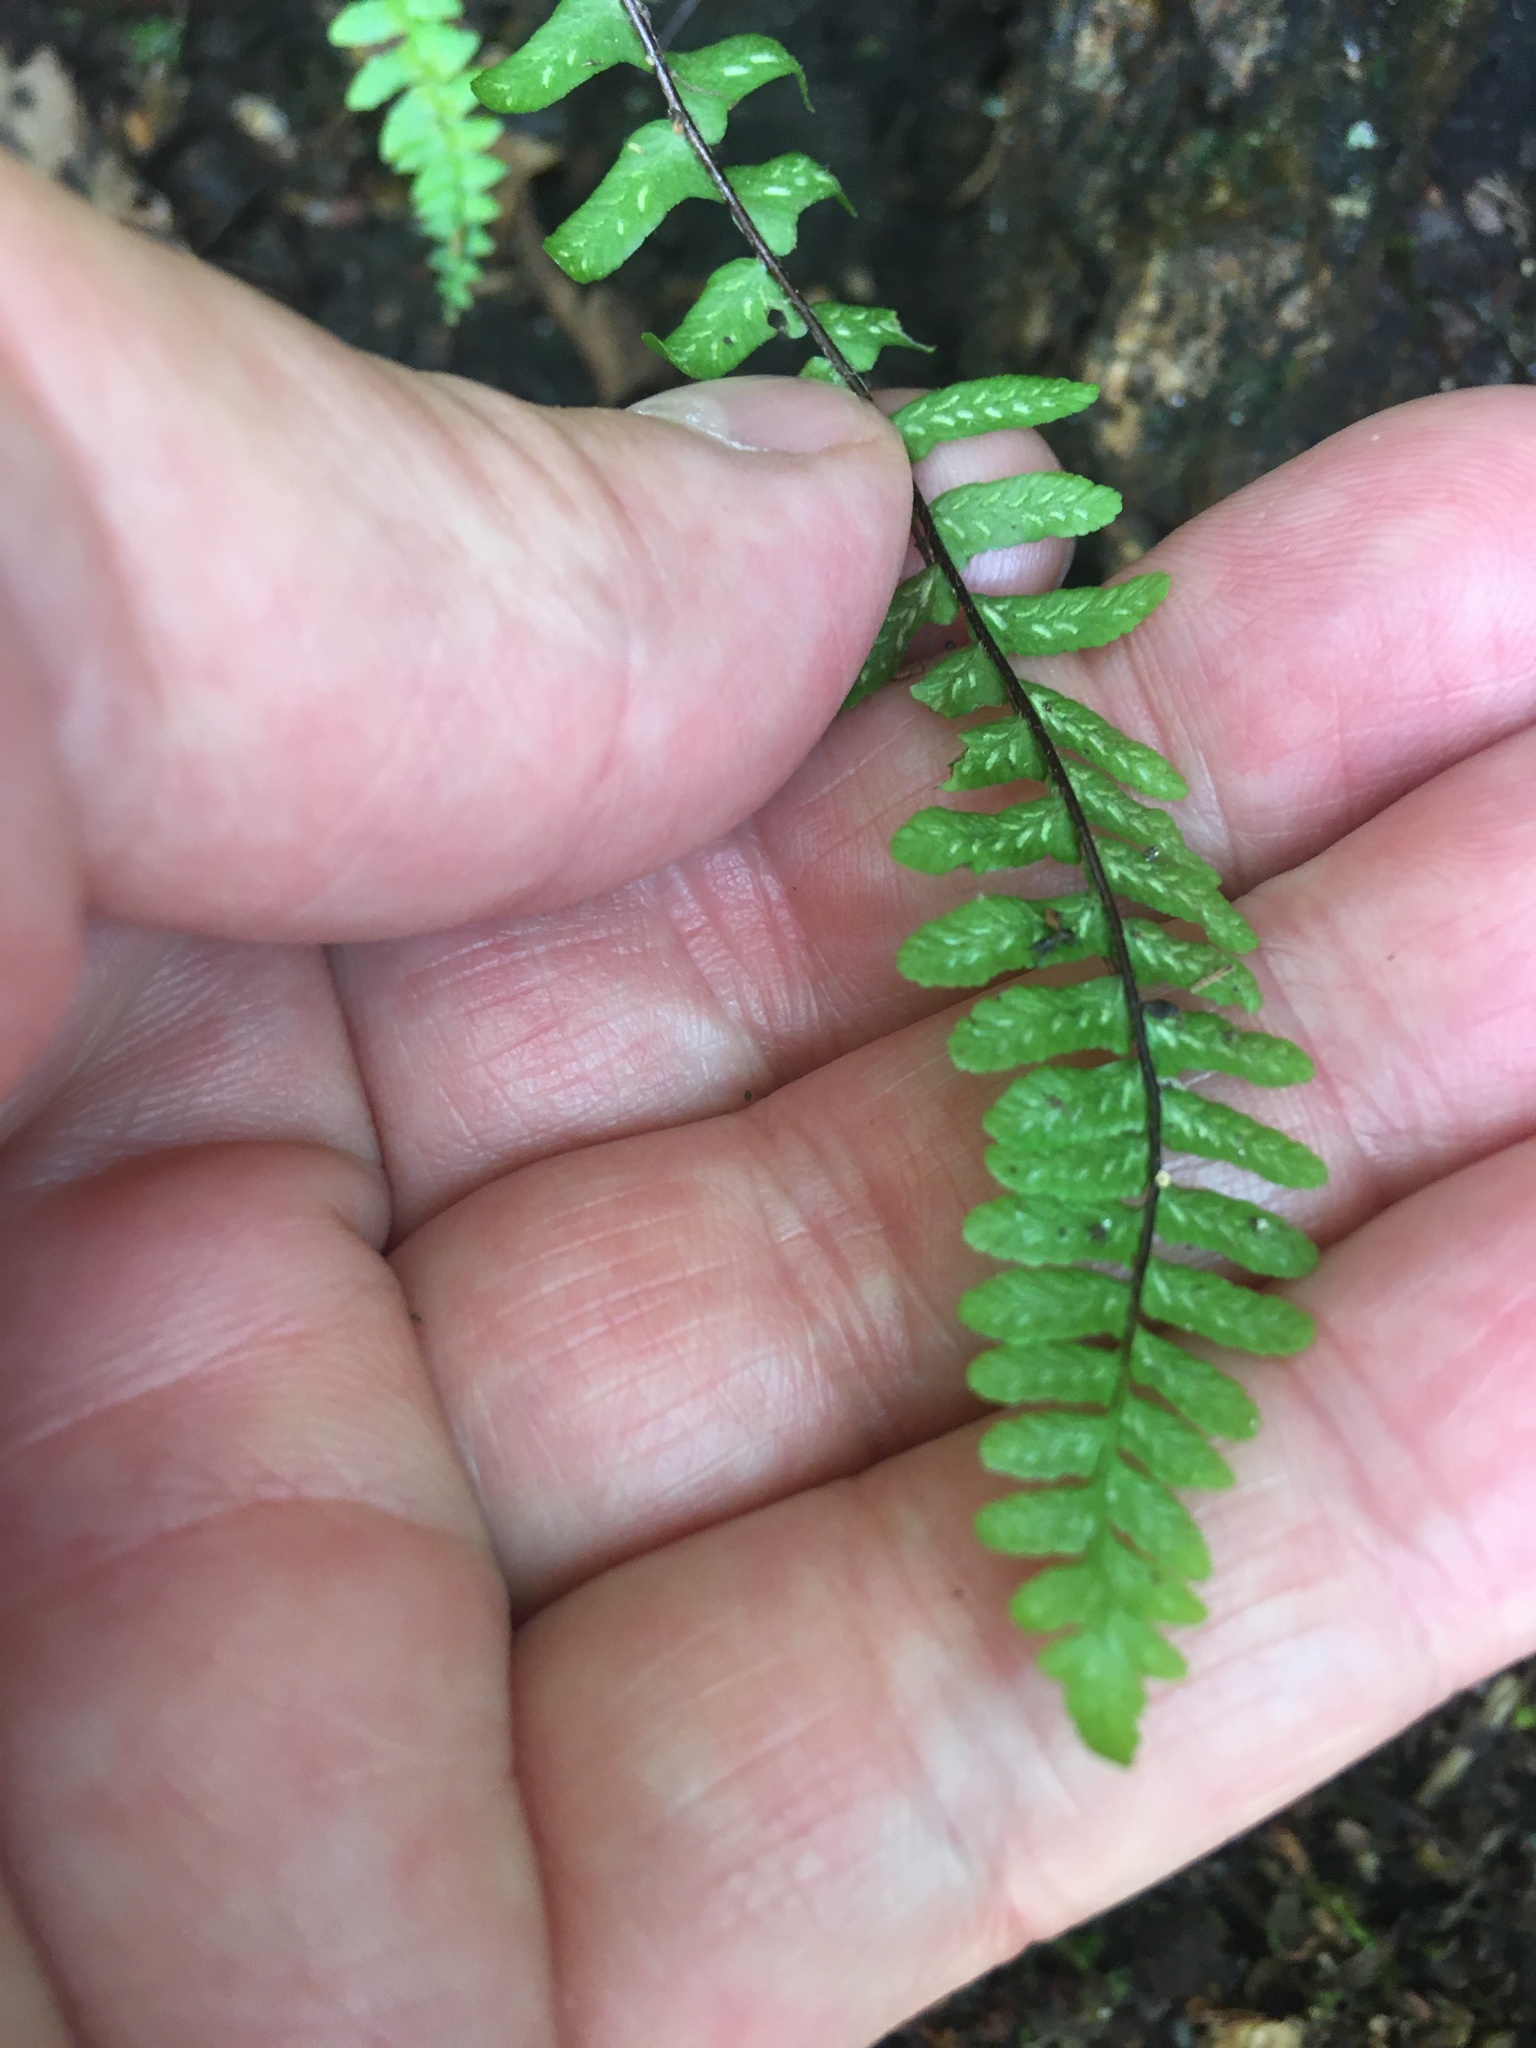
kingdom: Plantae
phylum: Tracheophyta
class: Polypodiopsida
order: Polypodiales
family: Aspleniaceae
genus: Asplenium
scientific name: Asplenium platyneuron
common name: Ebony spleenwort
